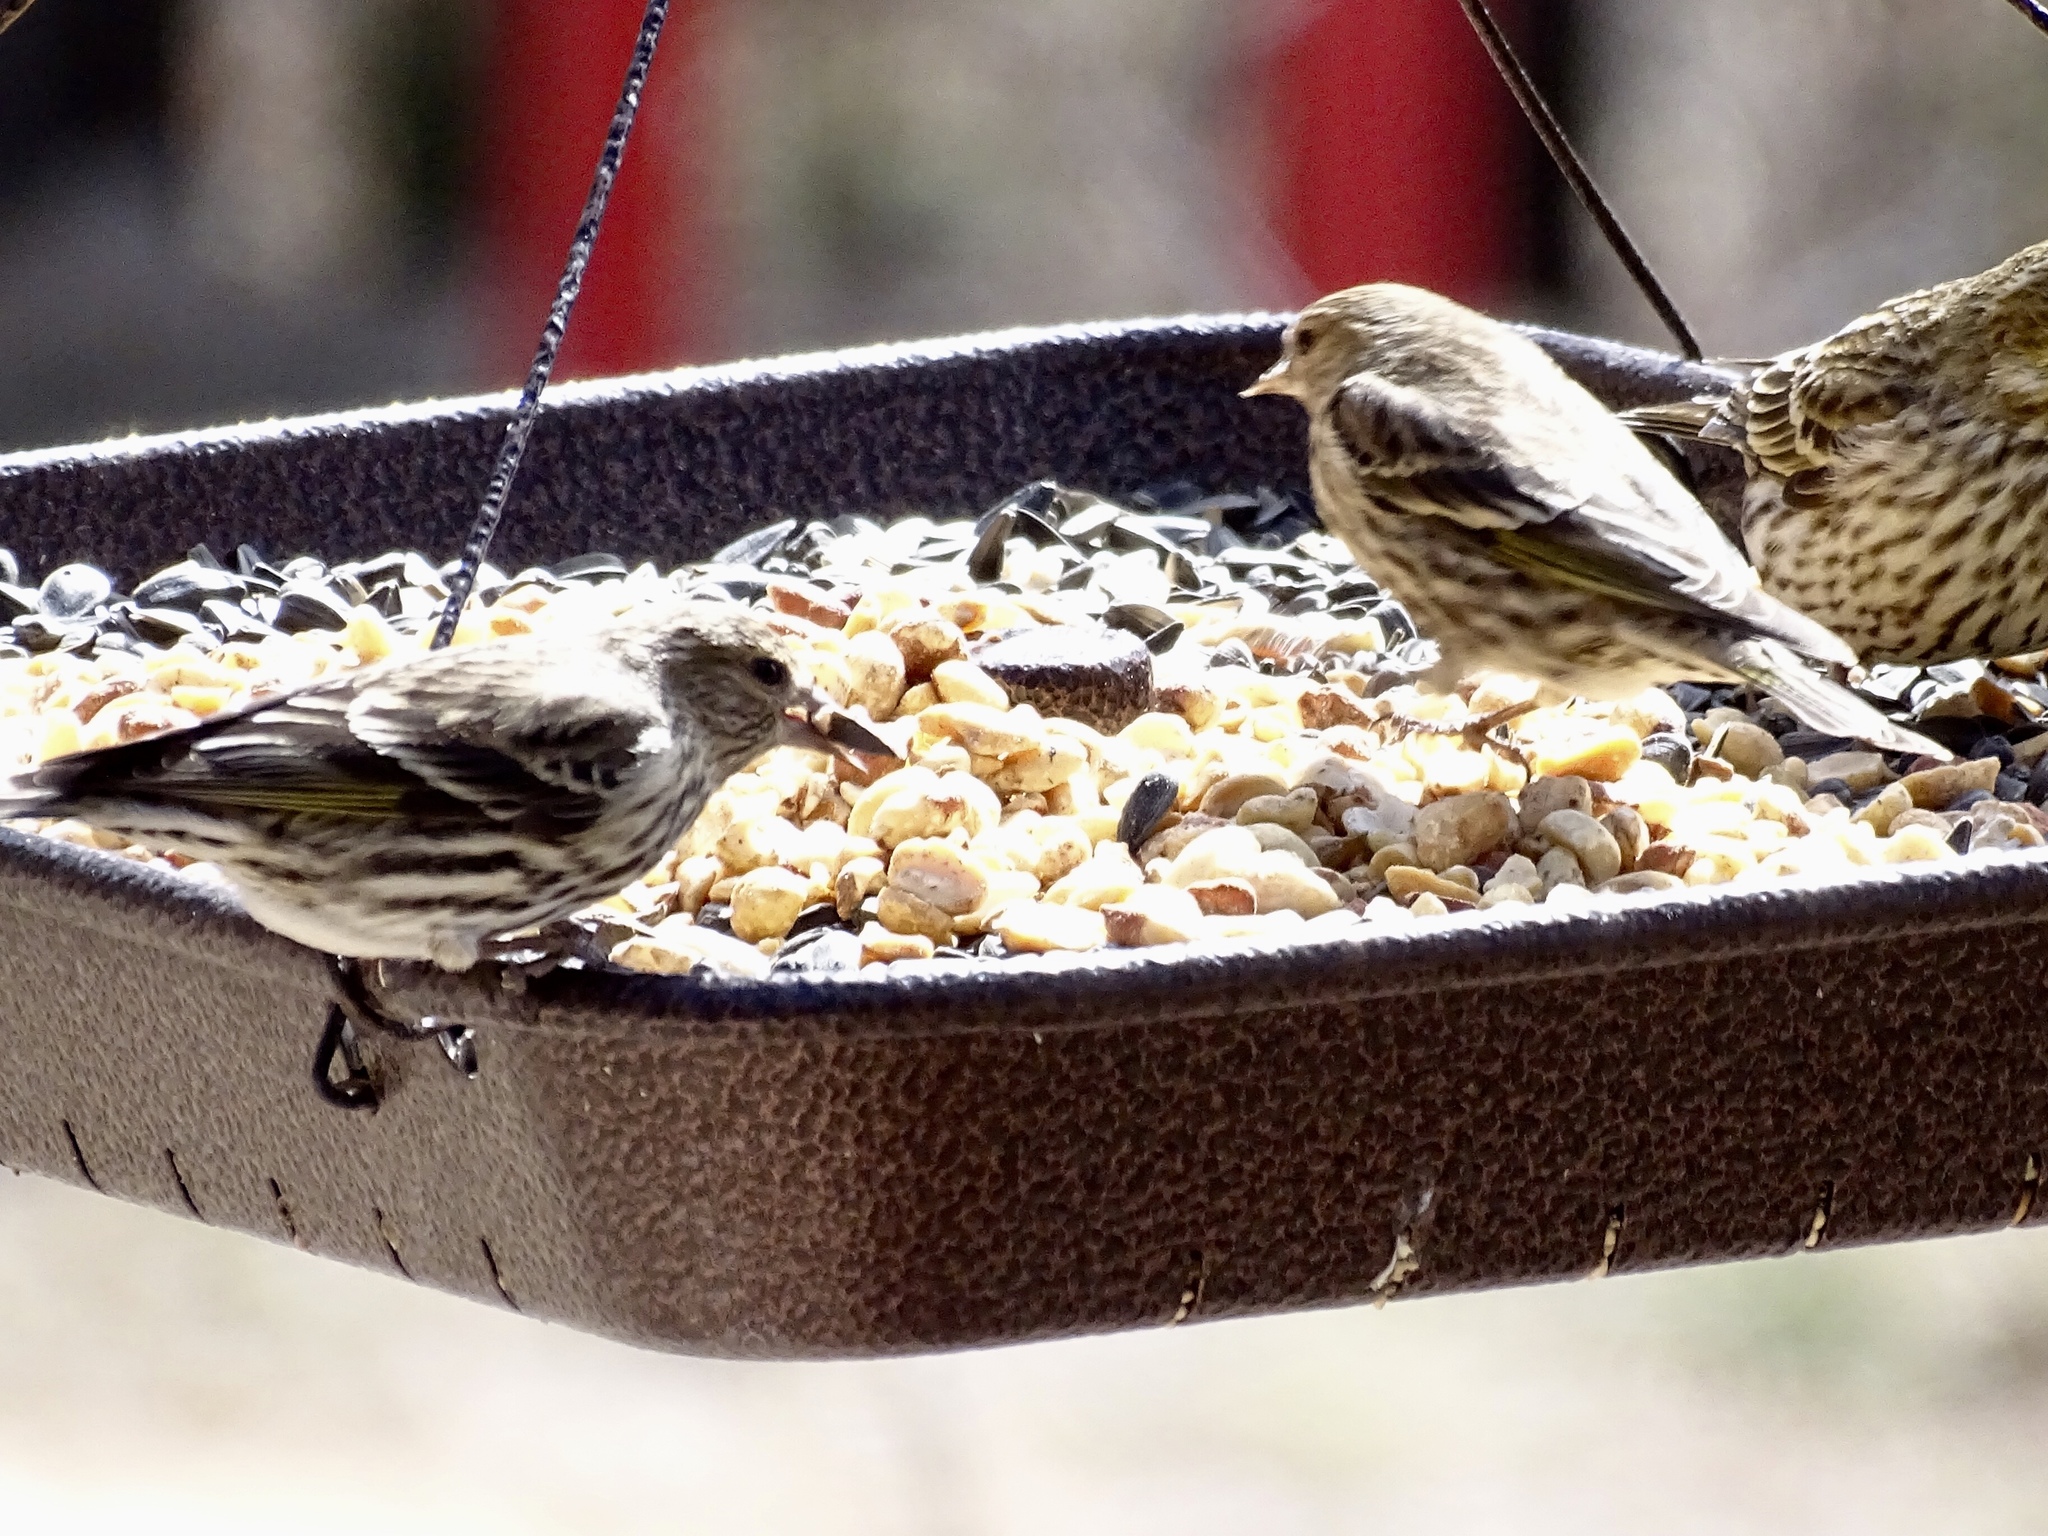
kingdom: Animalia
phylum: Chordata
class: Aves
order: Passeriformes
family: Fringillidae
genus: Spinus
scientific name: Spinus pinus
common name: Pine siskin
